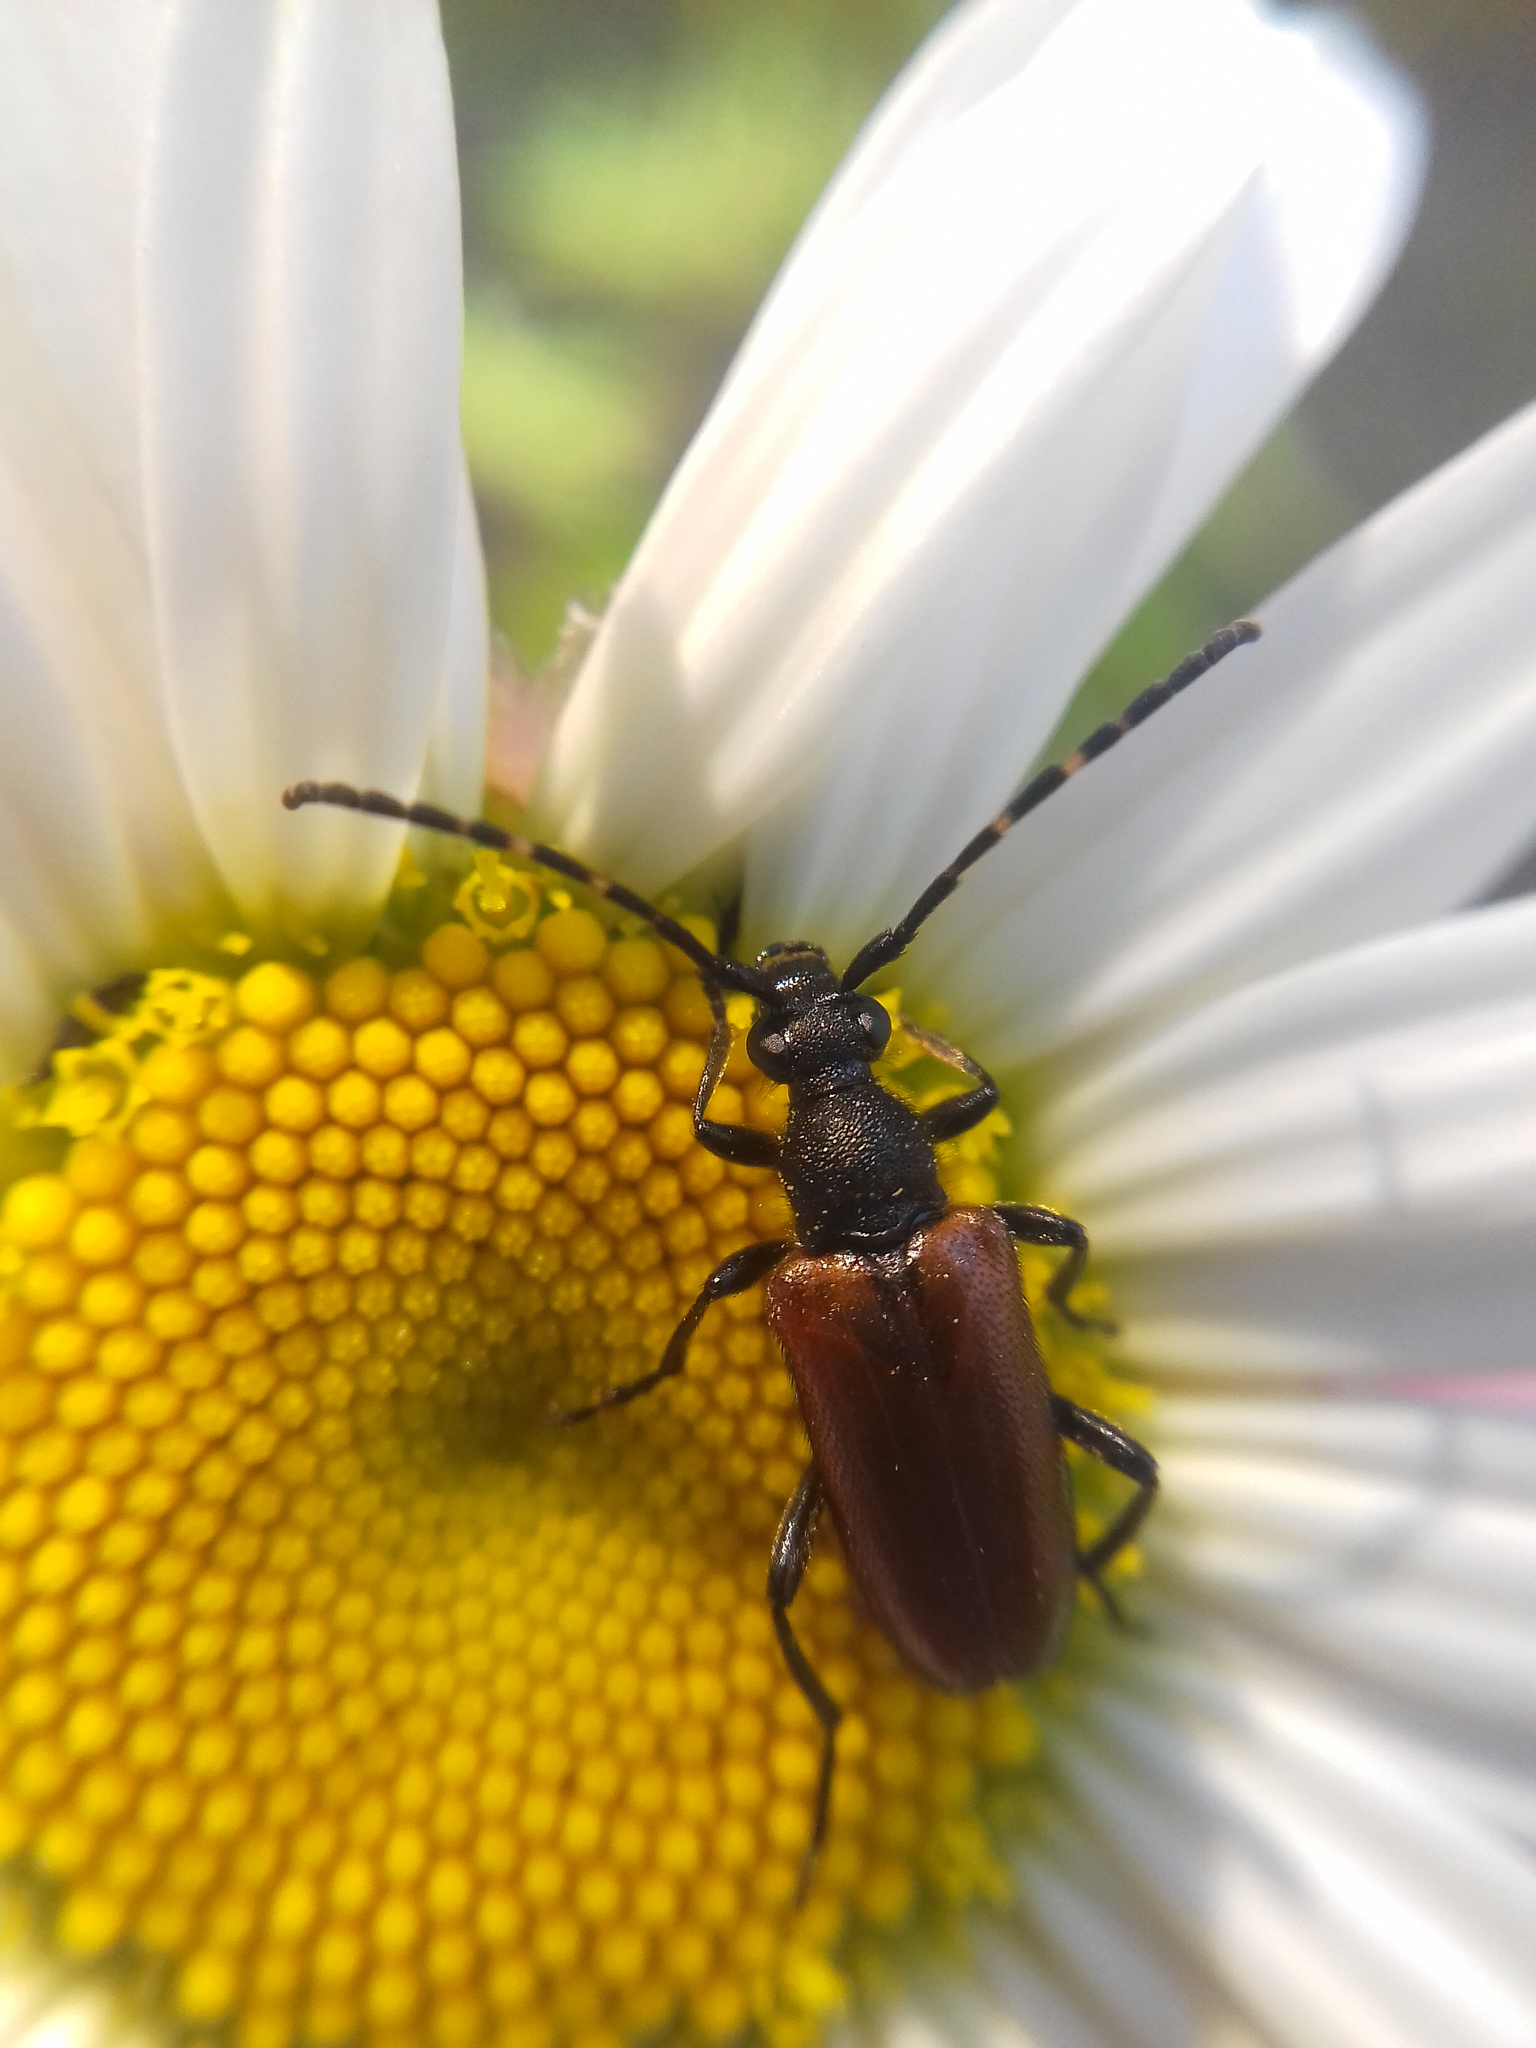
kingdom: Animalia
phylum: Arthropoda
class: Insecta
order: Coleoptera
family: Cerambycidae
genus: Paracorymbia
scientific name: Paracorymbia maculicornis
